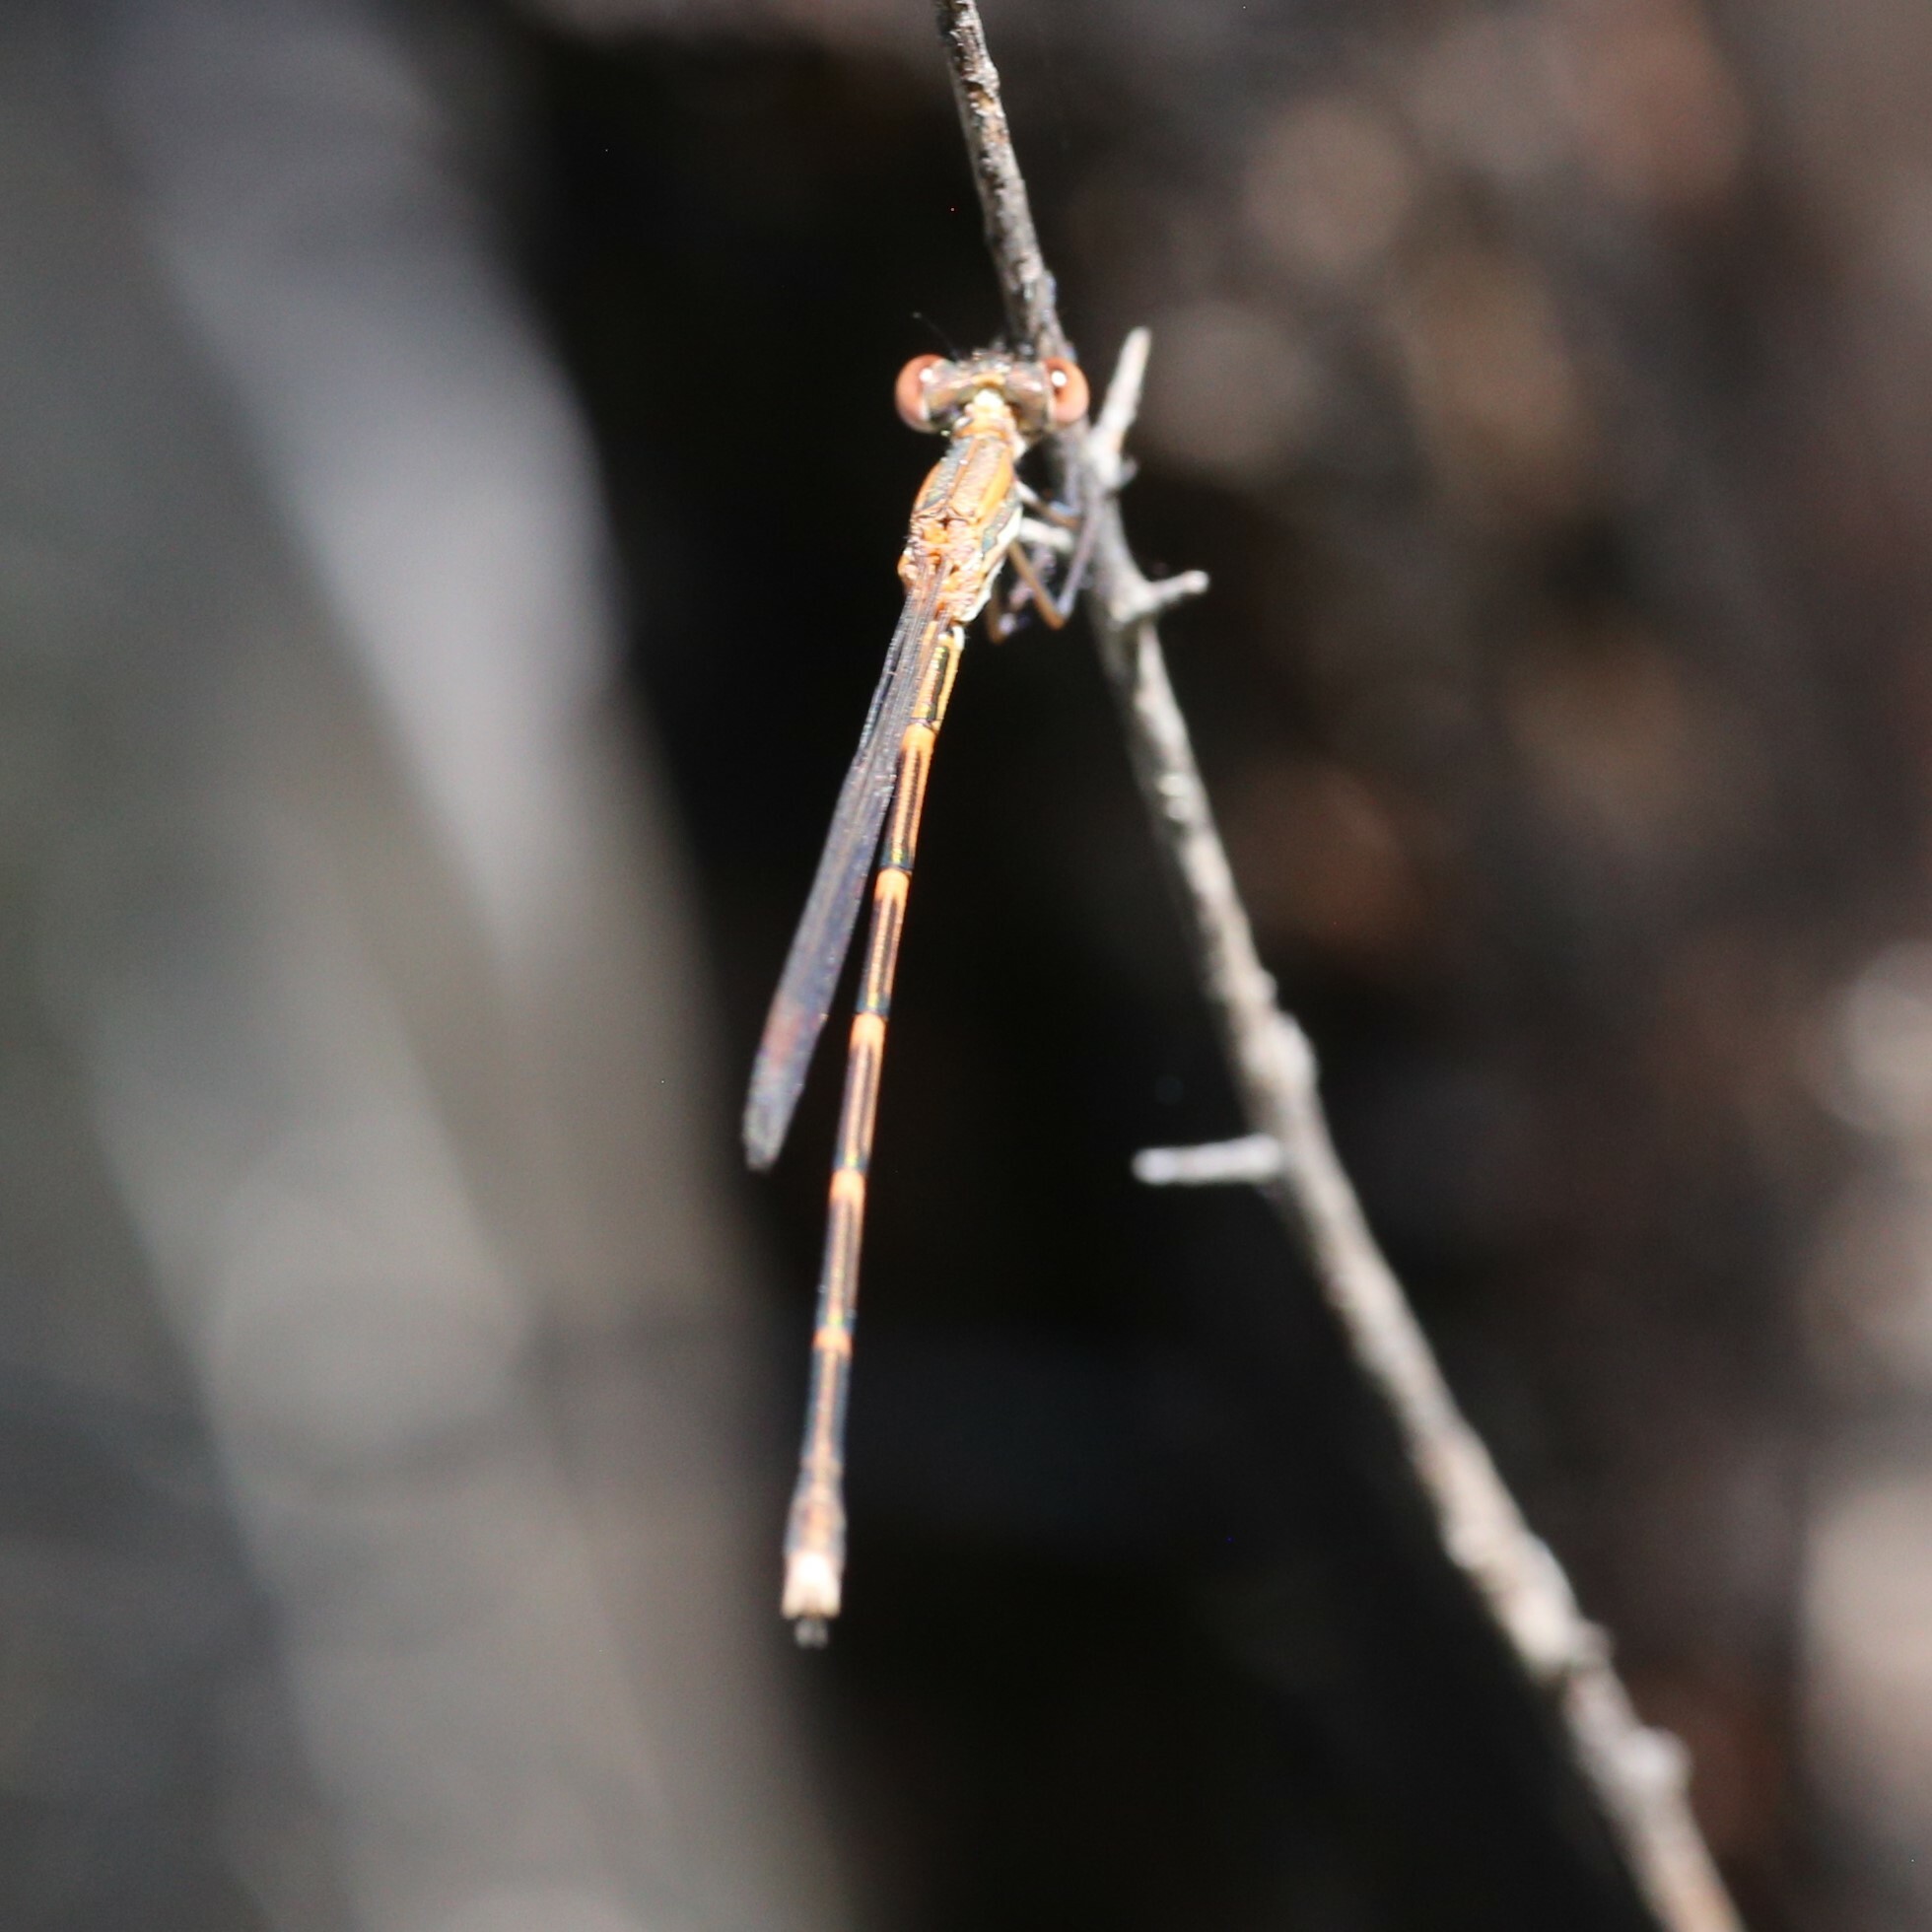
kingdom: Animalia
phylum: Arthropoda
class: Insecta
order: Odonata
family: Lestidae
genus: Austrolestes
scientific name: Austrolestes analis
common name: Slender ringtail
